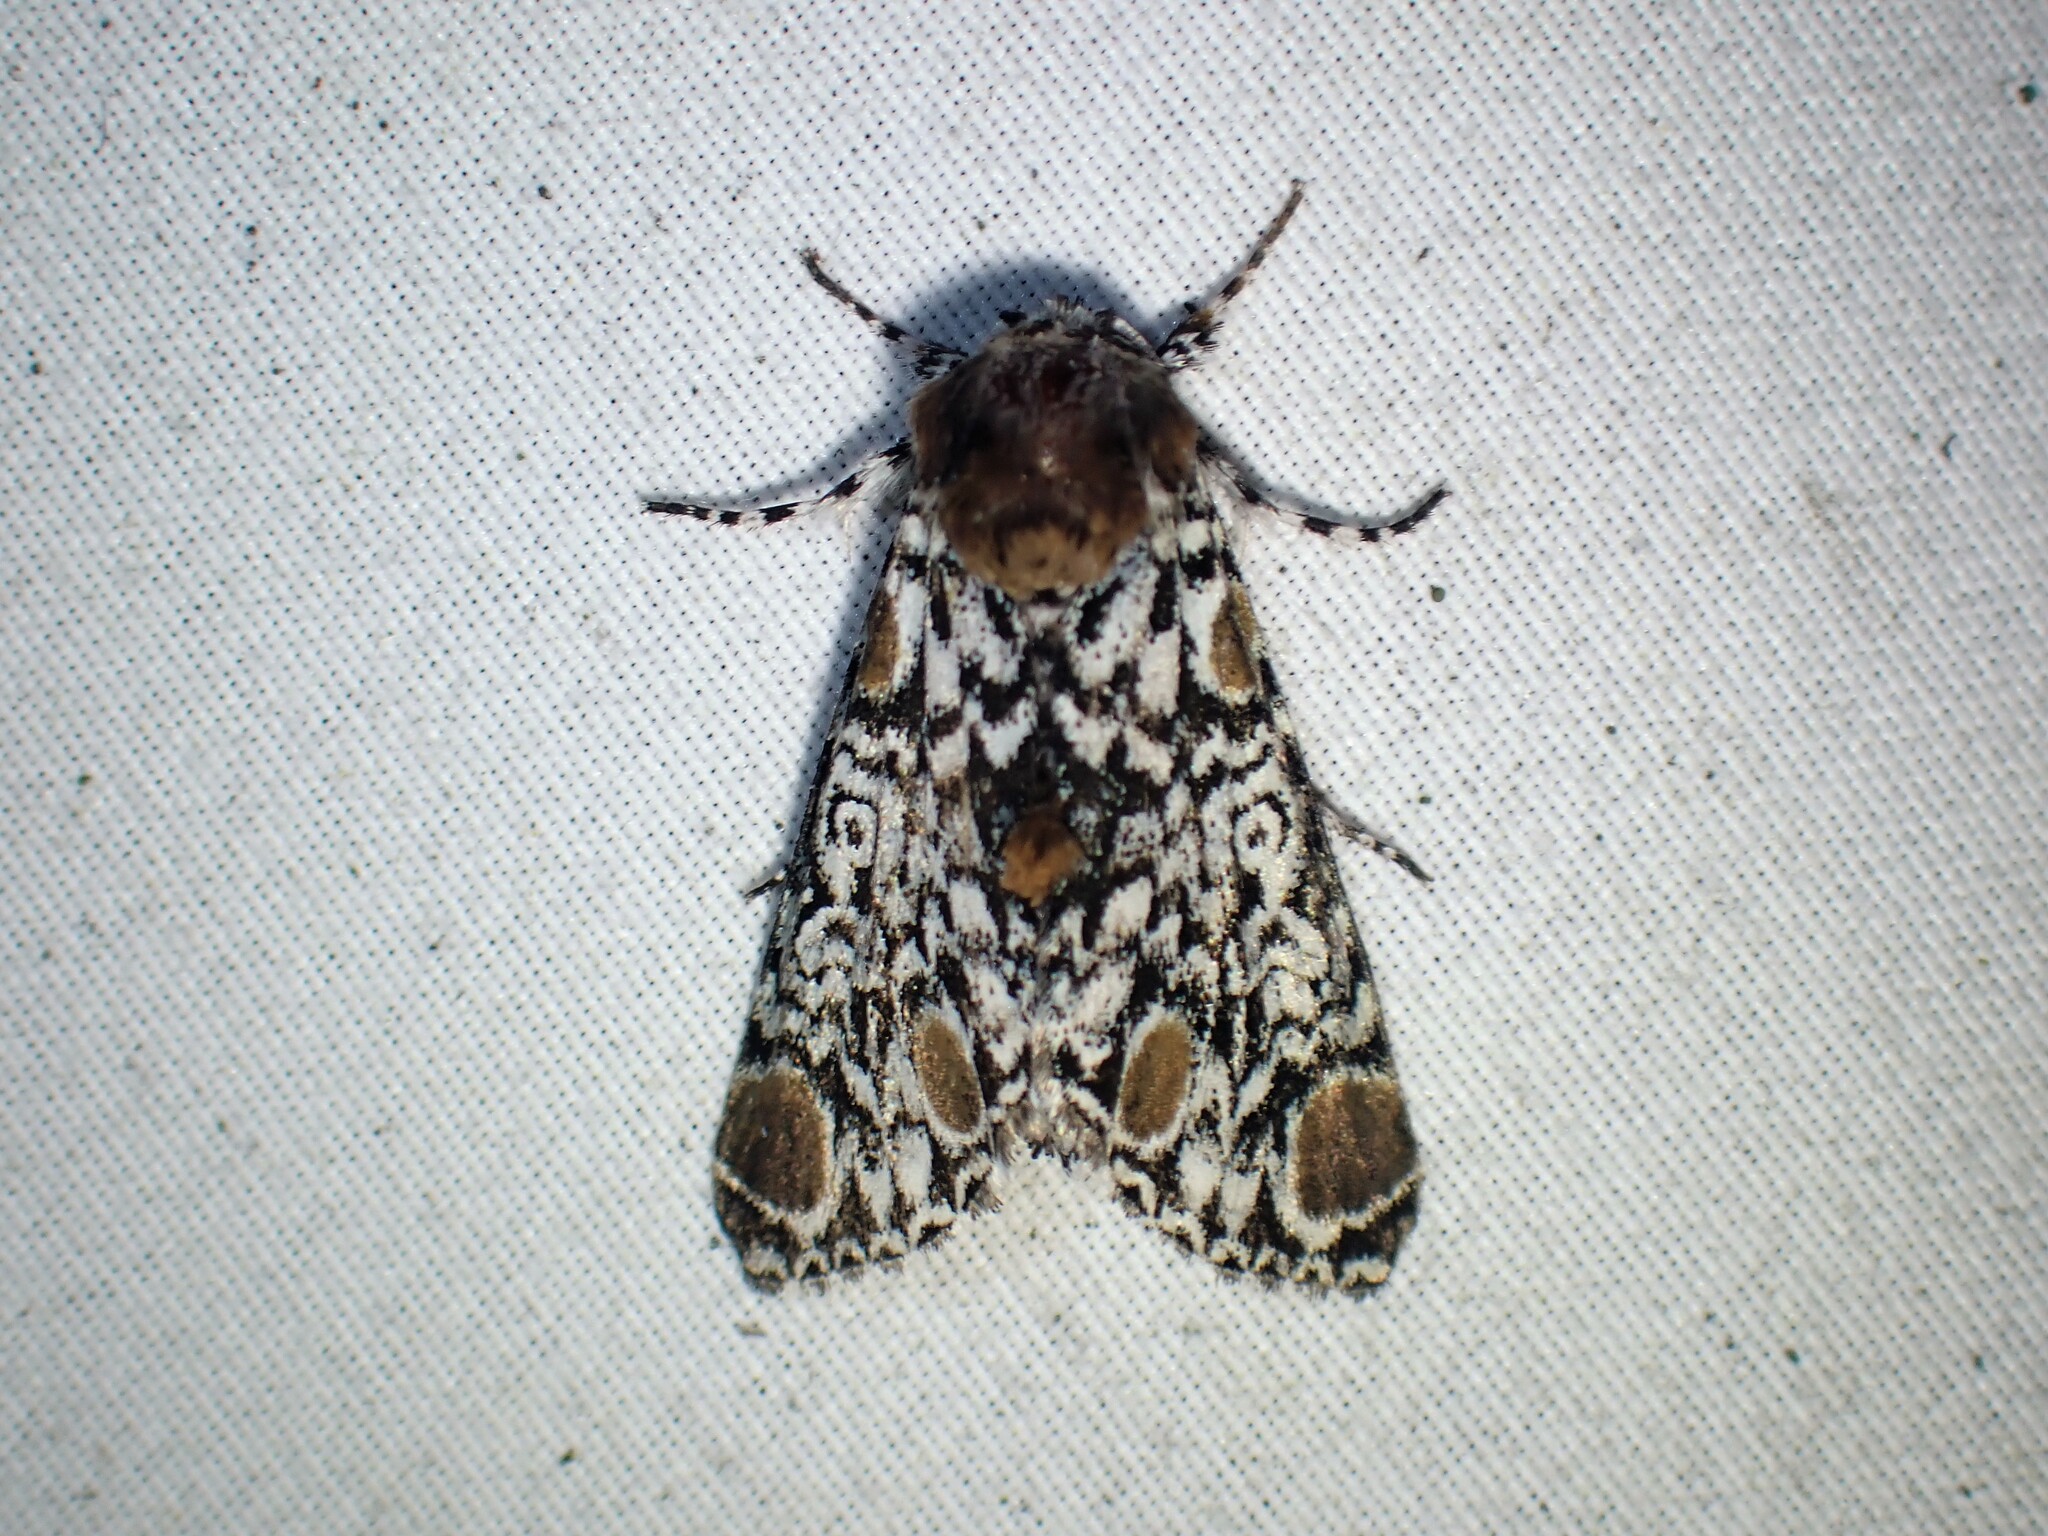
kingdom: Animalia
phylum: Arthropoda
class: Insecta
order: Lepidoptera
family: Noctuidae
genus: Harrisimemna
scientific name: Harrisimemna trisignata
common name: Harris threespot
